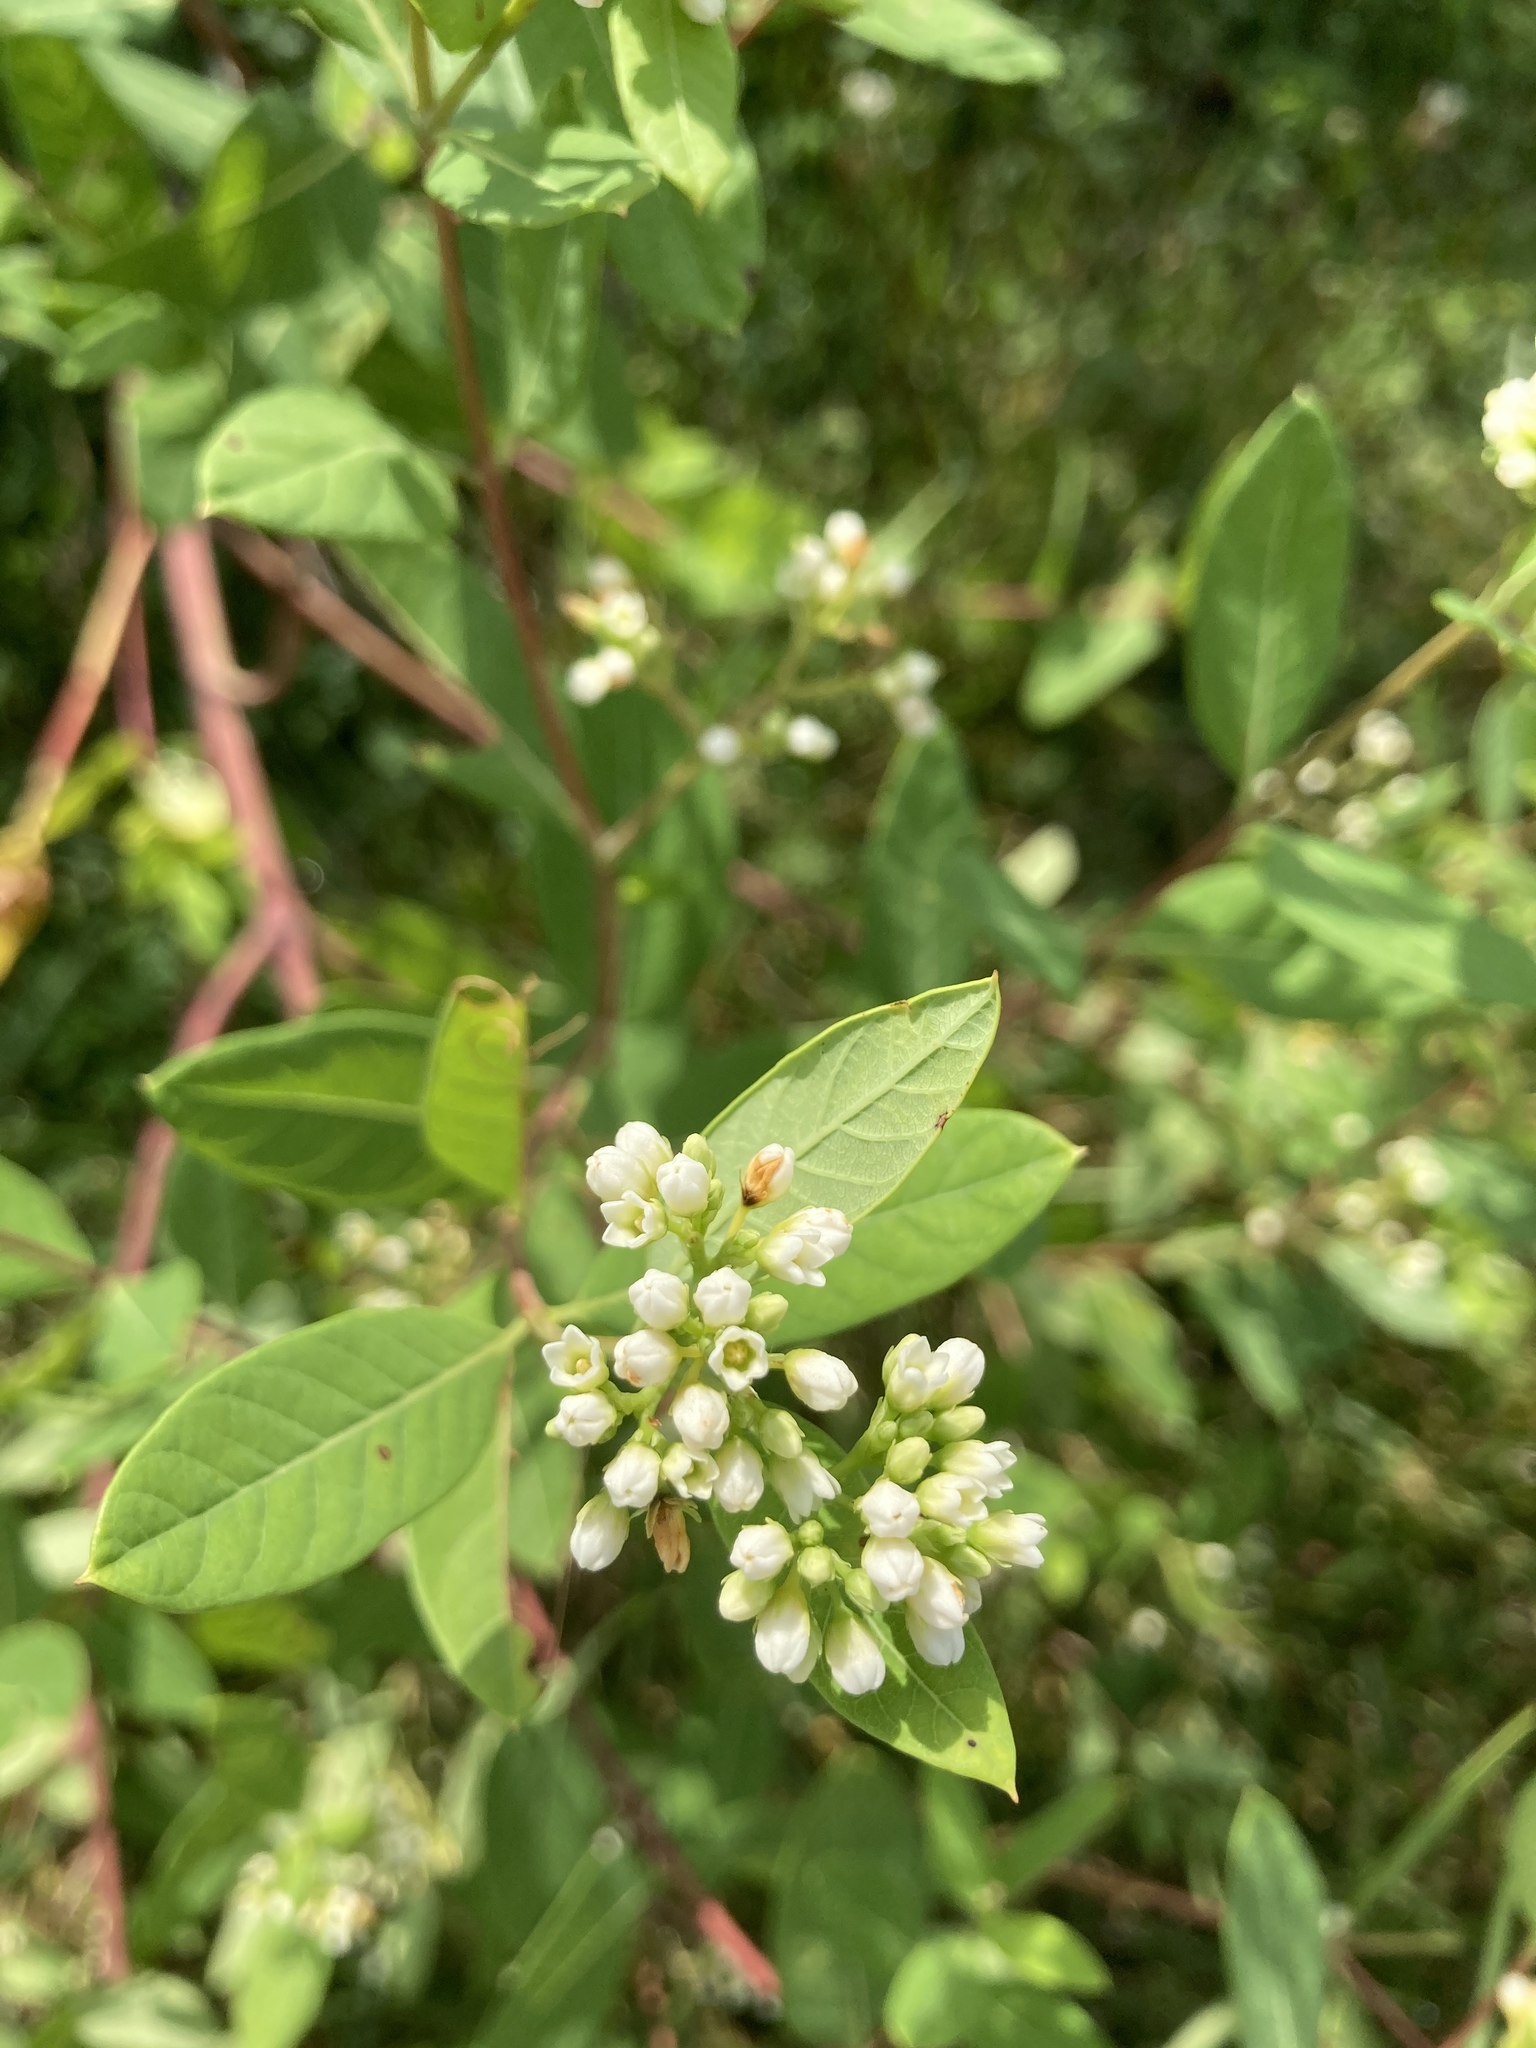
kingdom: Plantae
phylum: Tracheophyta
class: Magnoliopsida
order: Gentianales
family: Apocynaceae
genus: Apocynum
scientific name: Apocynum cannabinum
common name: Hemp dogbane
